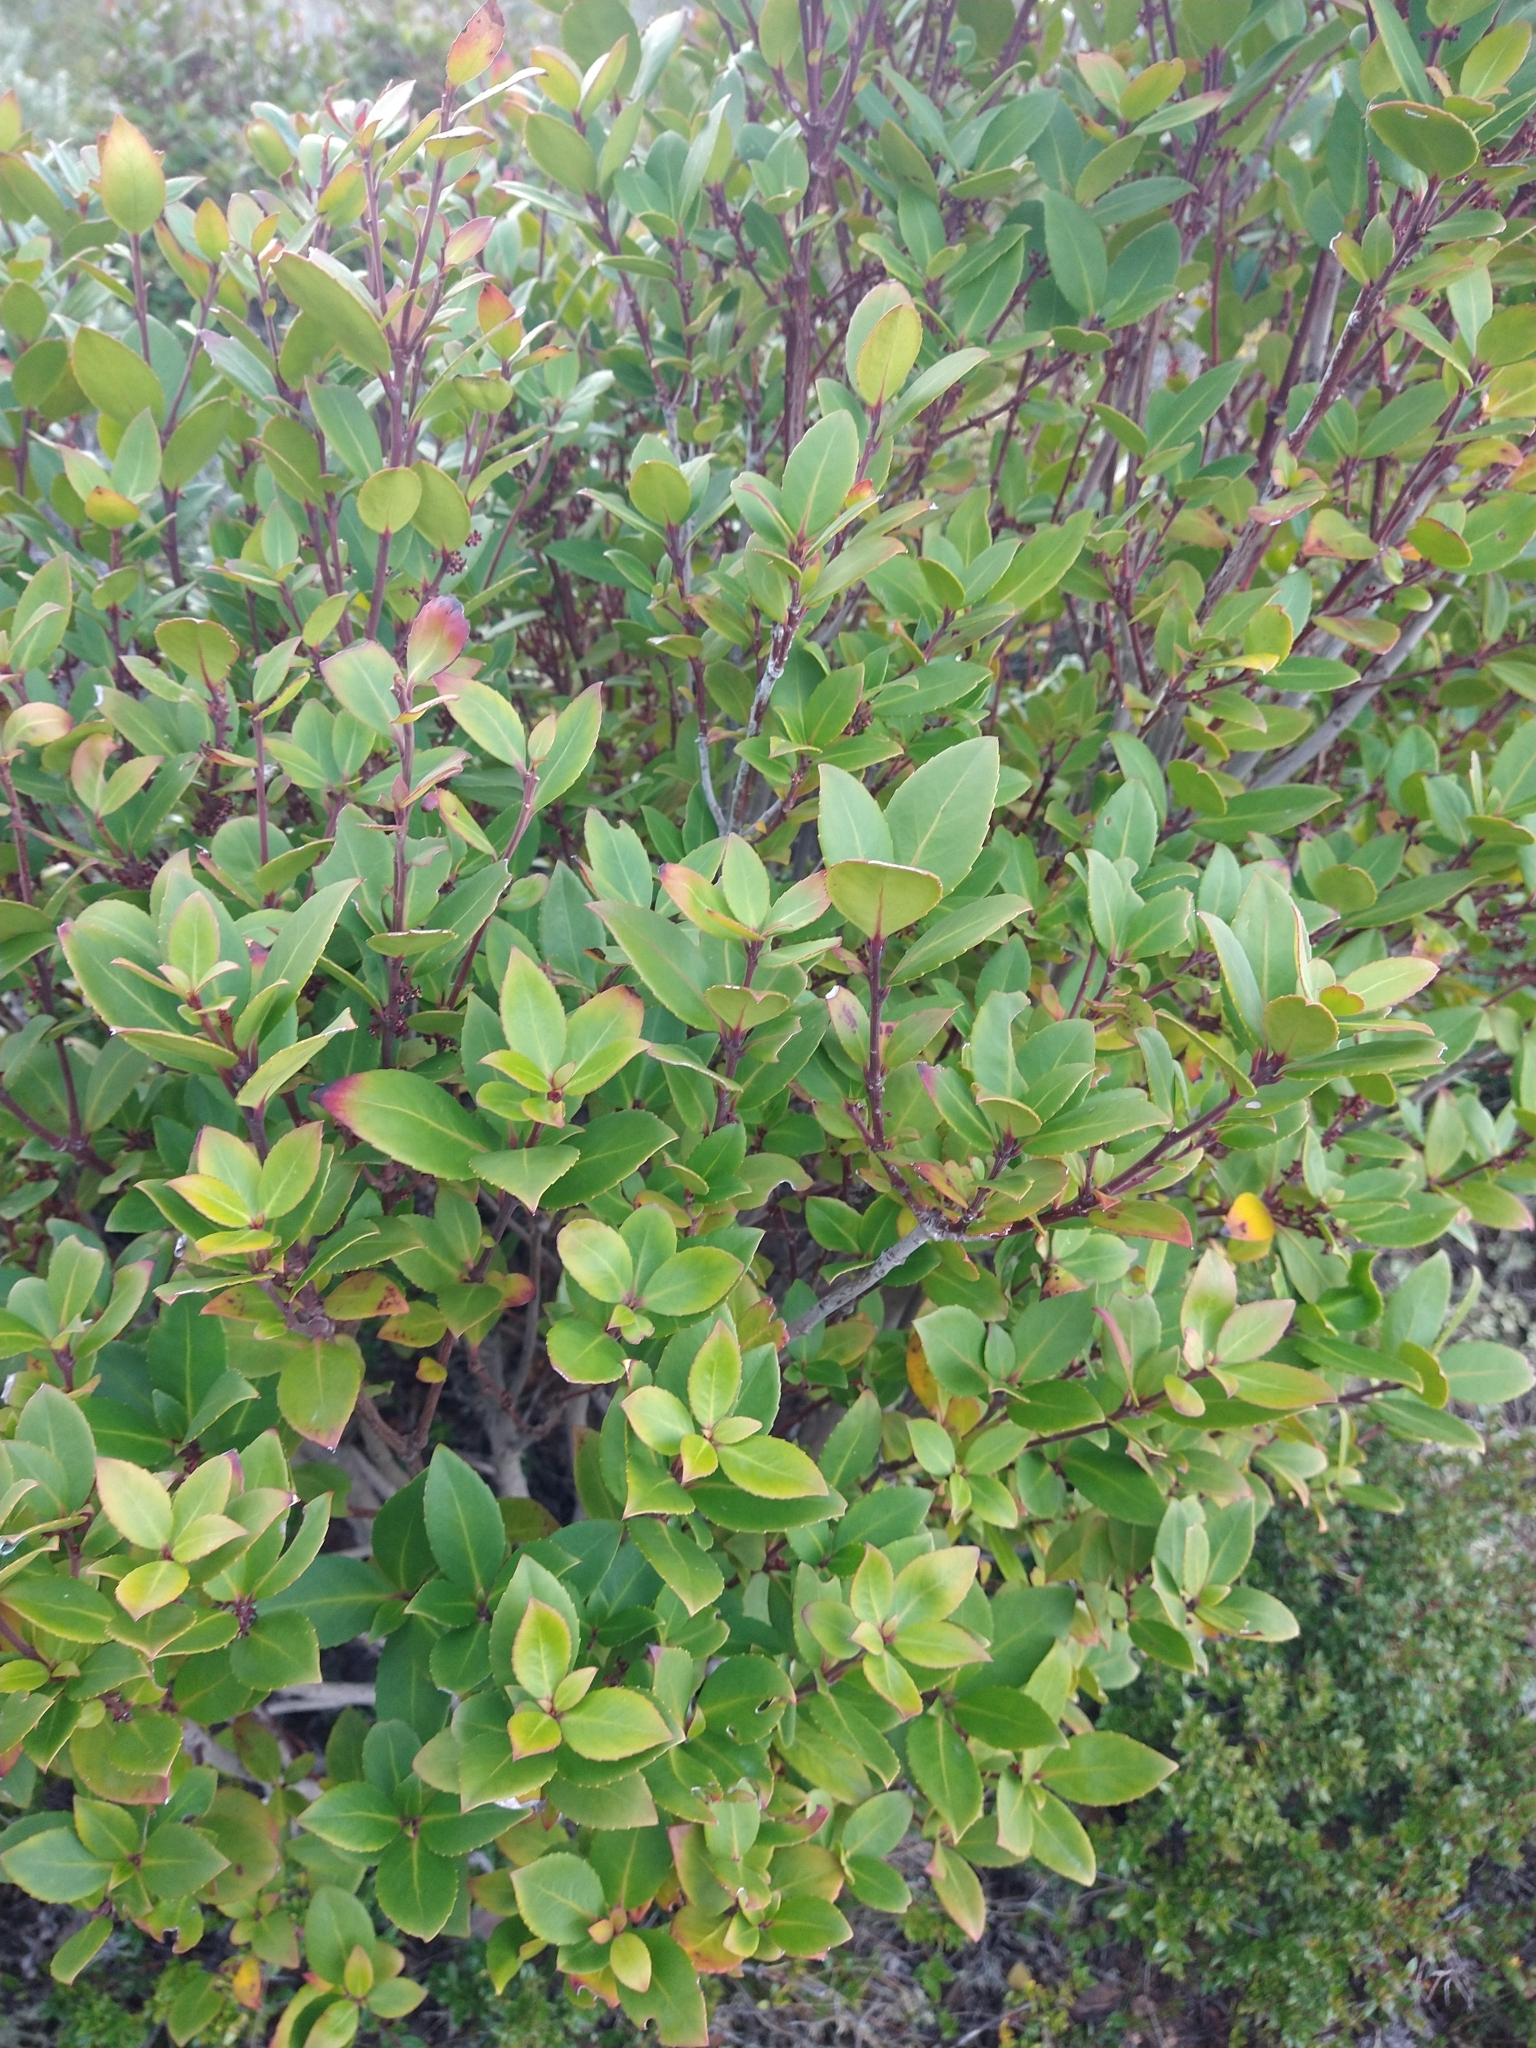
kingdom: Plantae
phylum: Tracheophyta
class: Magnoliopsida
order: Celastrales
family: Celastraceae
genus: Maytenus
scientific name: Maytenus magellanica
